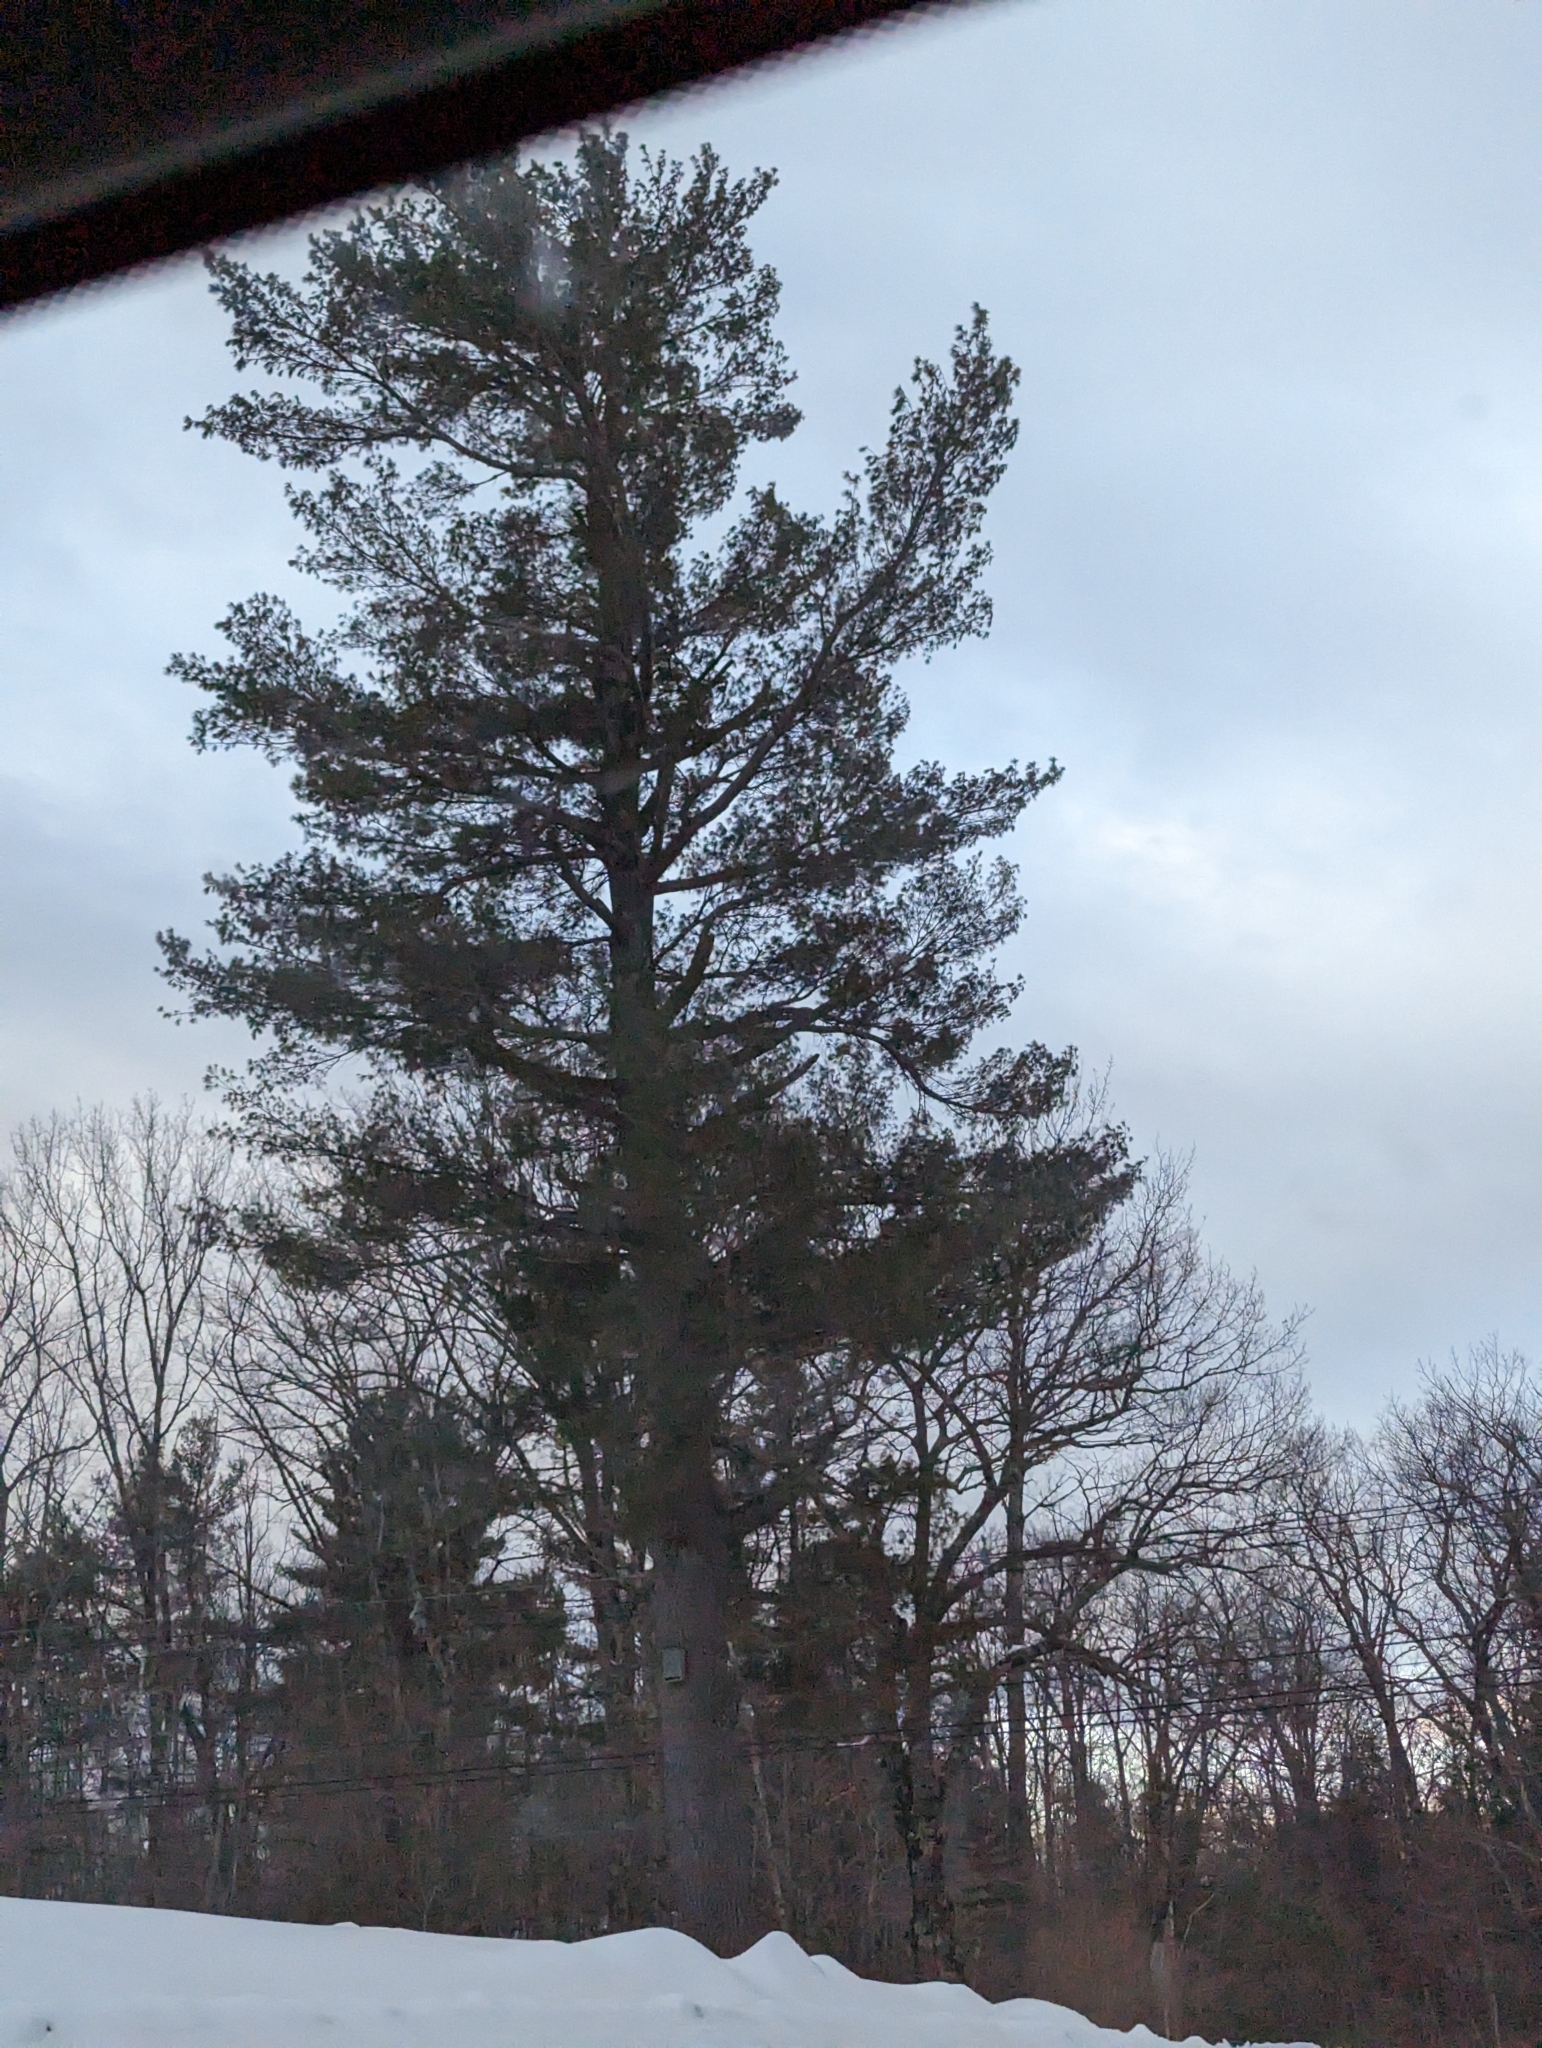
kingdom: Plantae
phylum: Tracheophyta
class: Pinopsida
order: Pinales
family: Pinaceae
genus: Pinus
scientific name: Pinus strobus
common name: Weymouth pine
